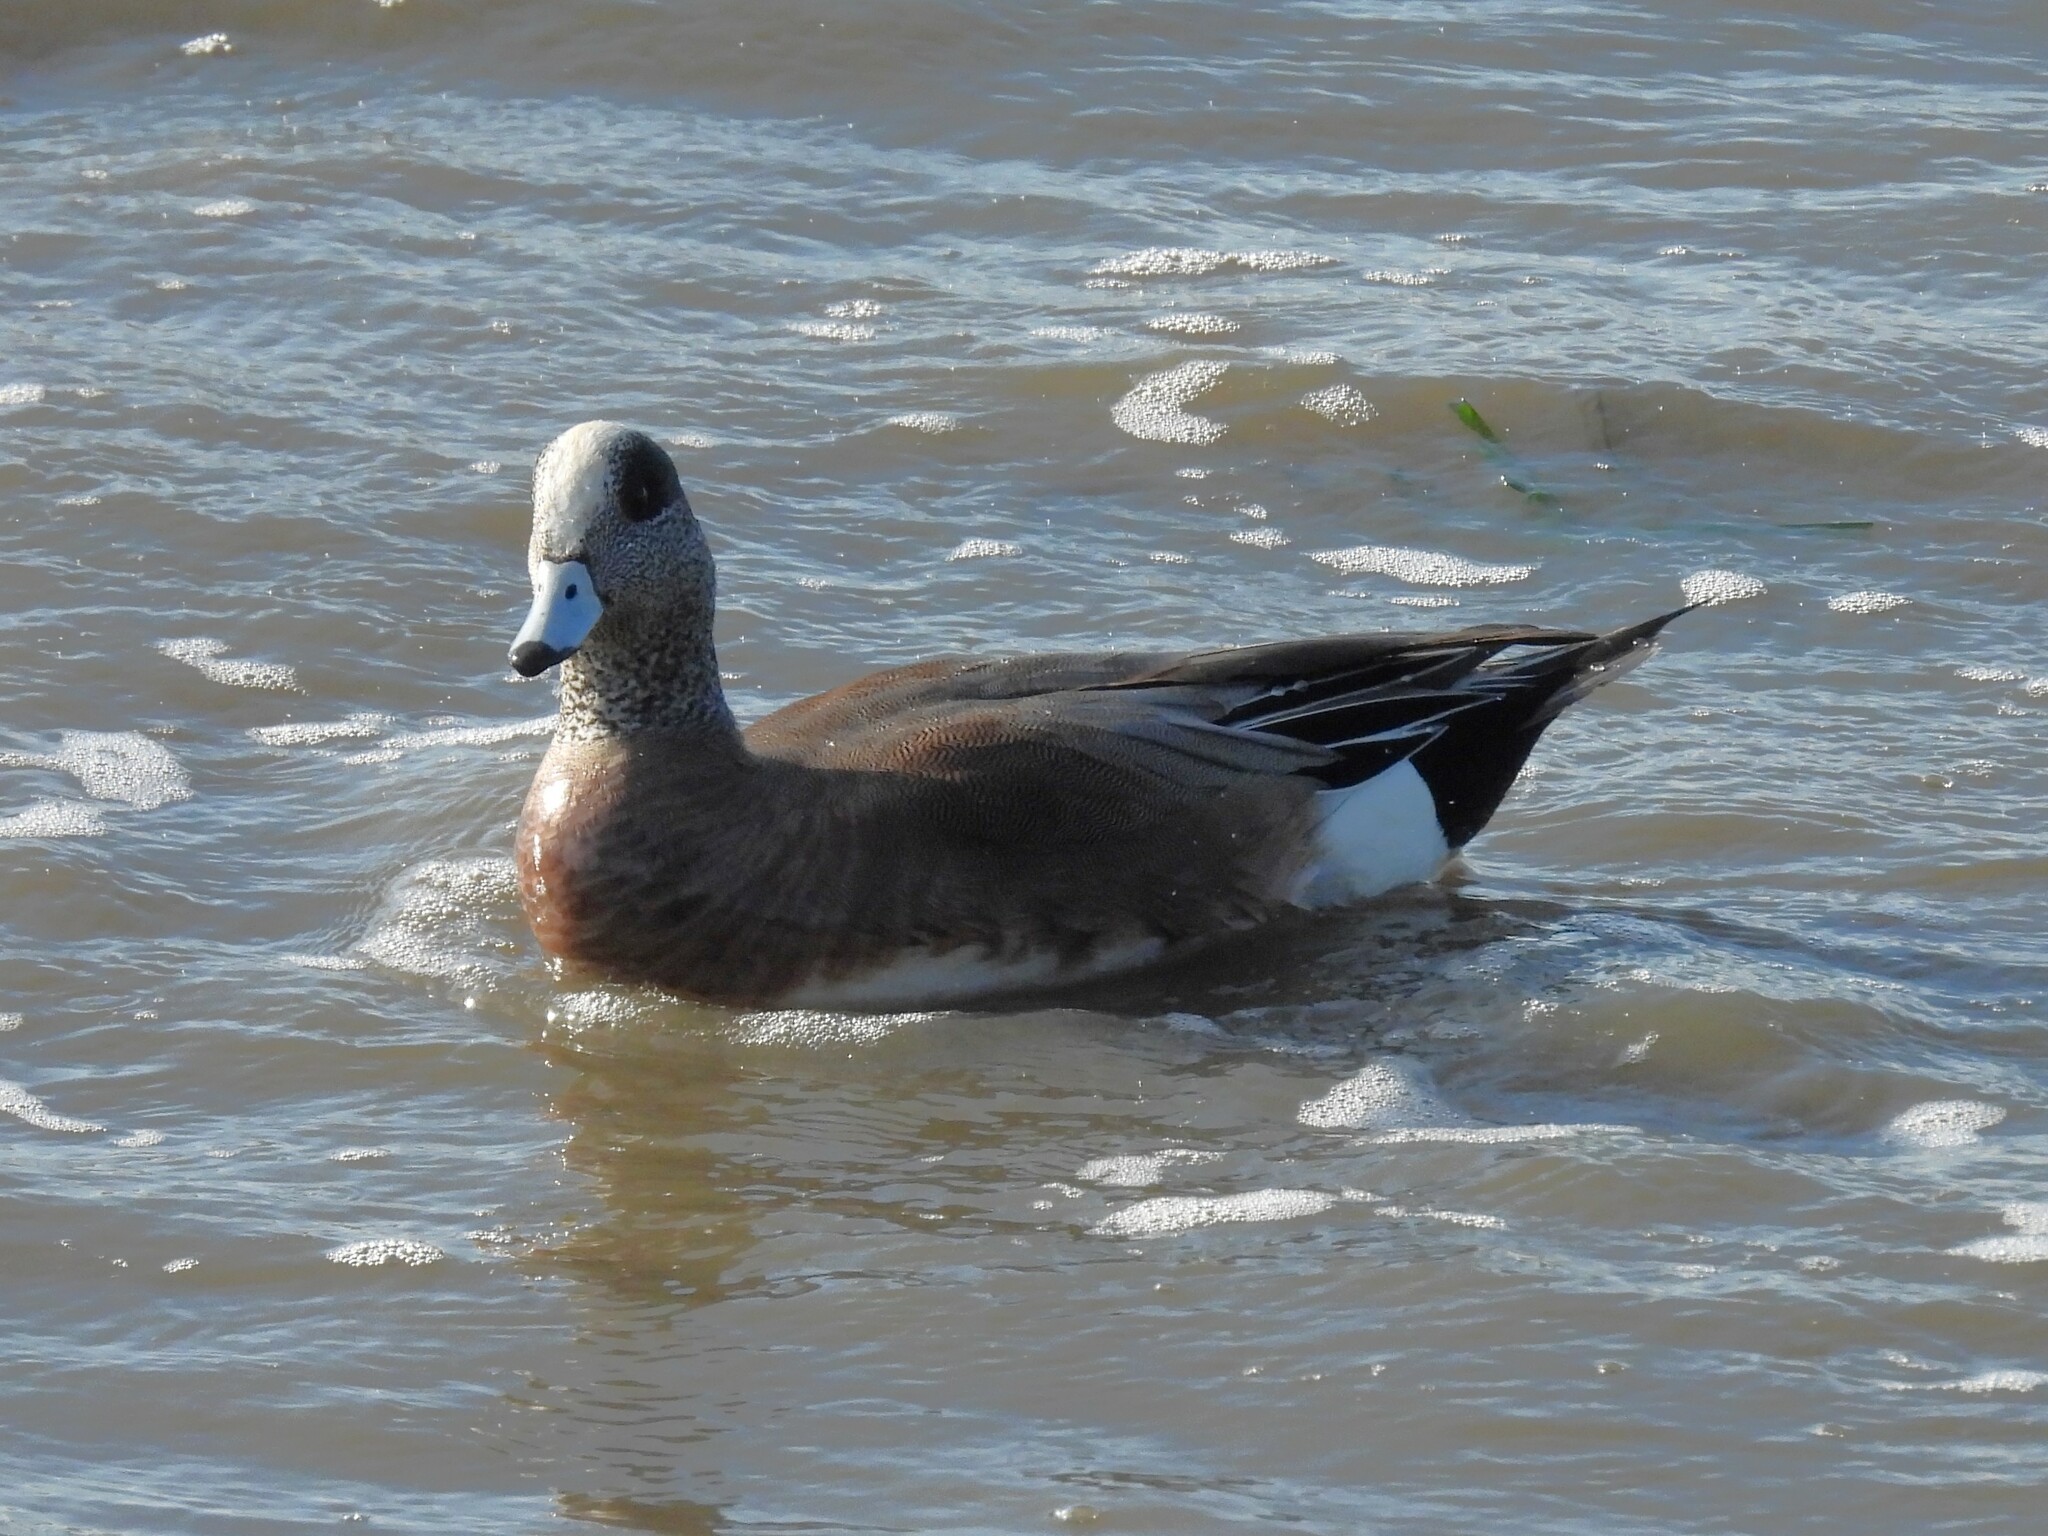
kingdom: Animalia
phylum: Chordata
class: Aves
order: Anseriformes
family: Anatidae
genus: Mareca
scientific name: Mareca americana
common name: American wigeon
